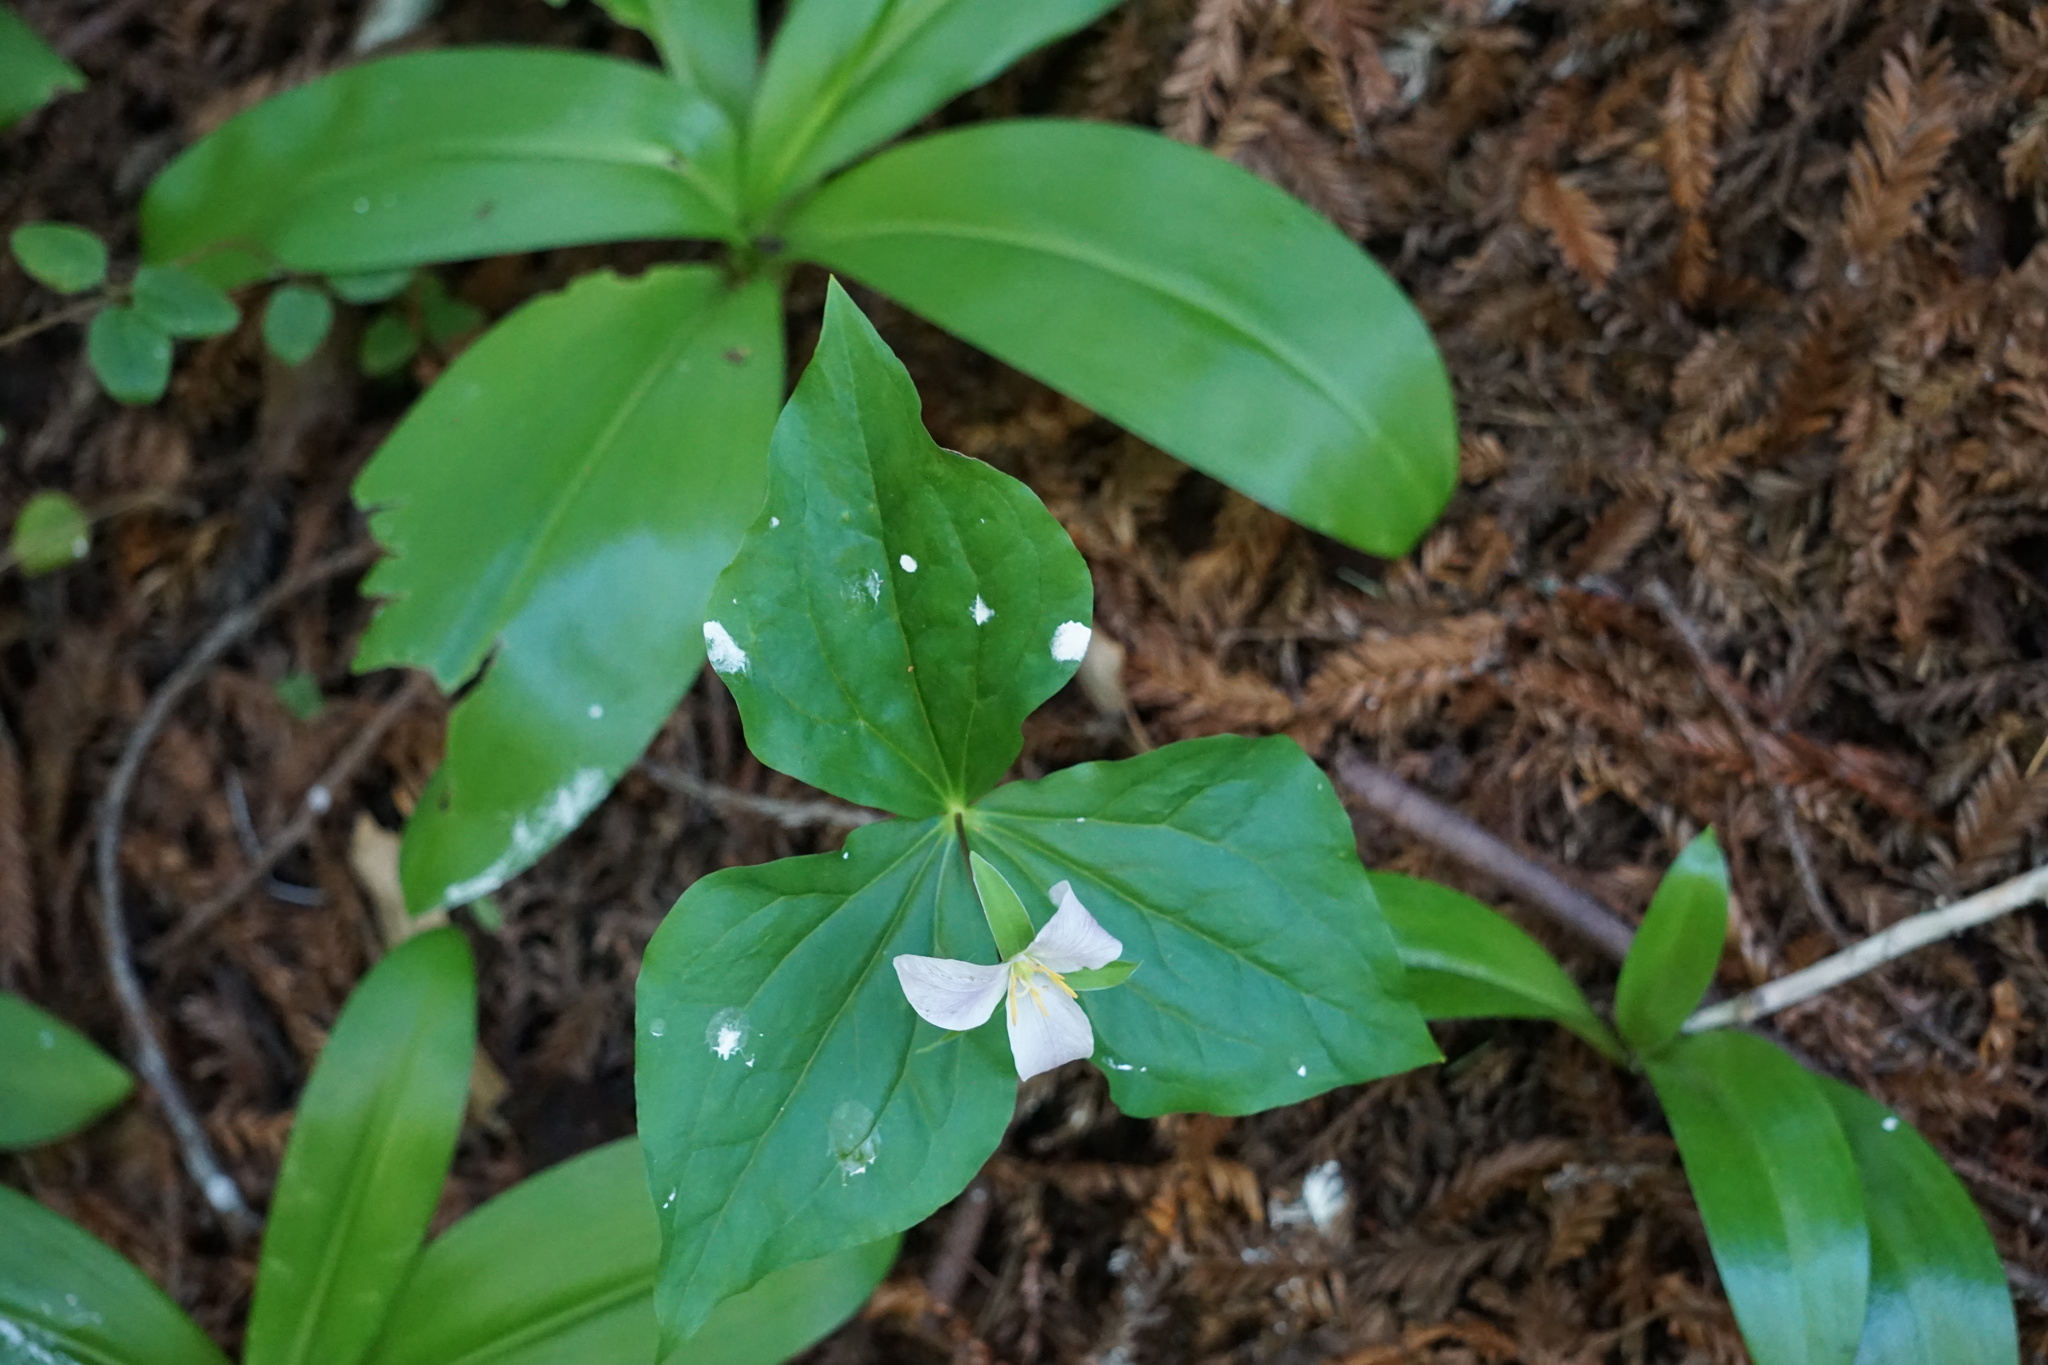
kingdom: Plantae
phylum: Tracheophyta
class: Liliopsida
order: Liliales
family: Melanthiaceae
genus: Trillium
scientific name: Trillium ovatum
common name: Pacific trillium
